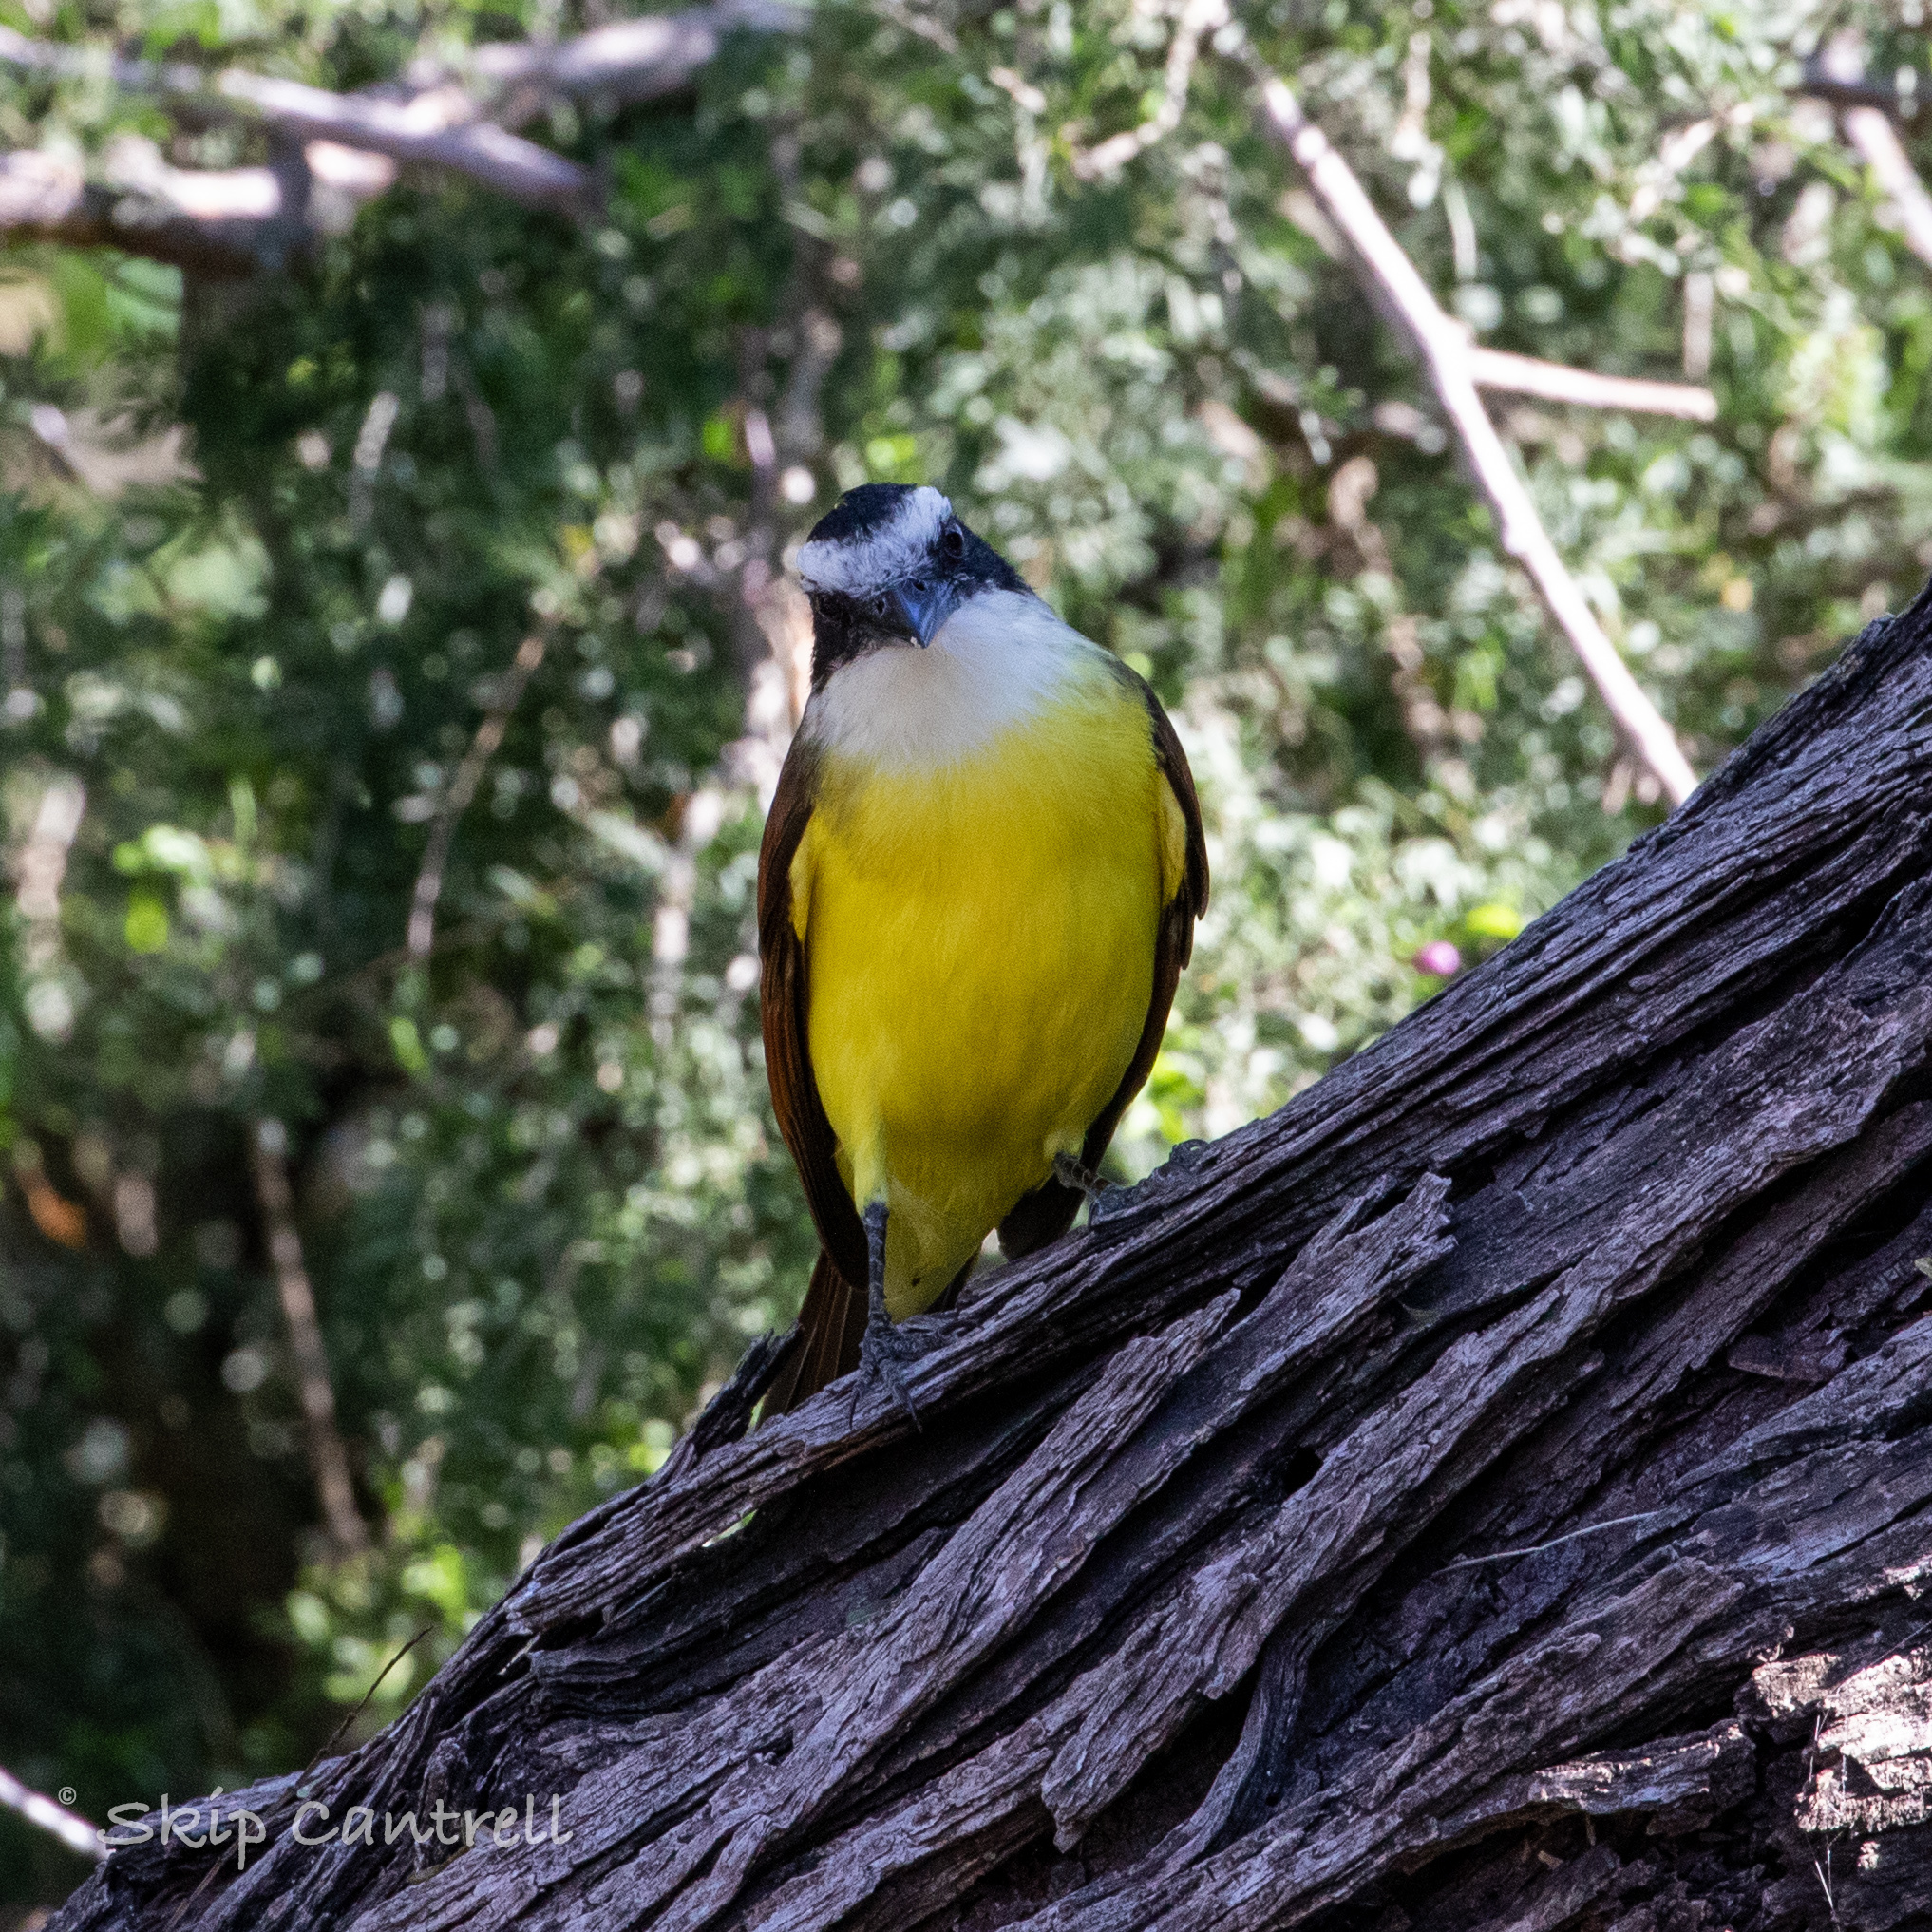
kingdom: Animalia
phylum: Chordata
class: Aves
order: Passeriformes
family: Tyrannidae
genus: Pitangus
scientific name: Pitangus sulphuratus
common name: Great kiskadee
